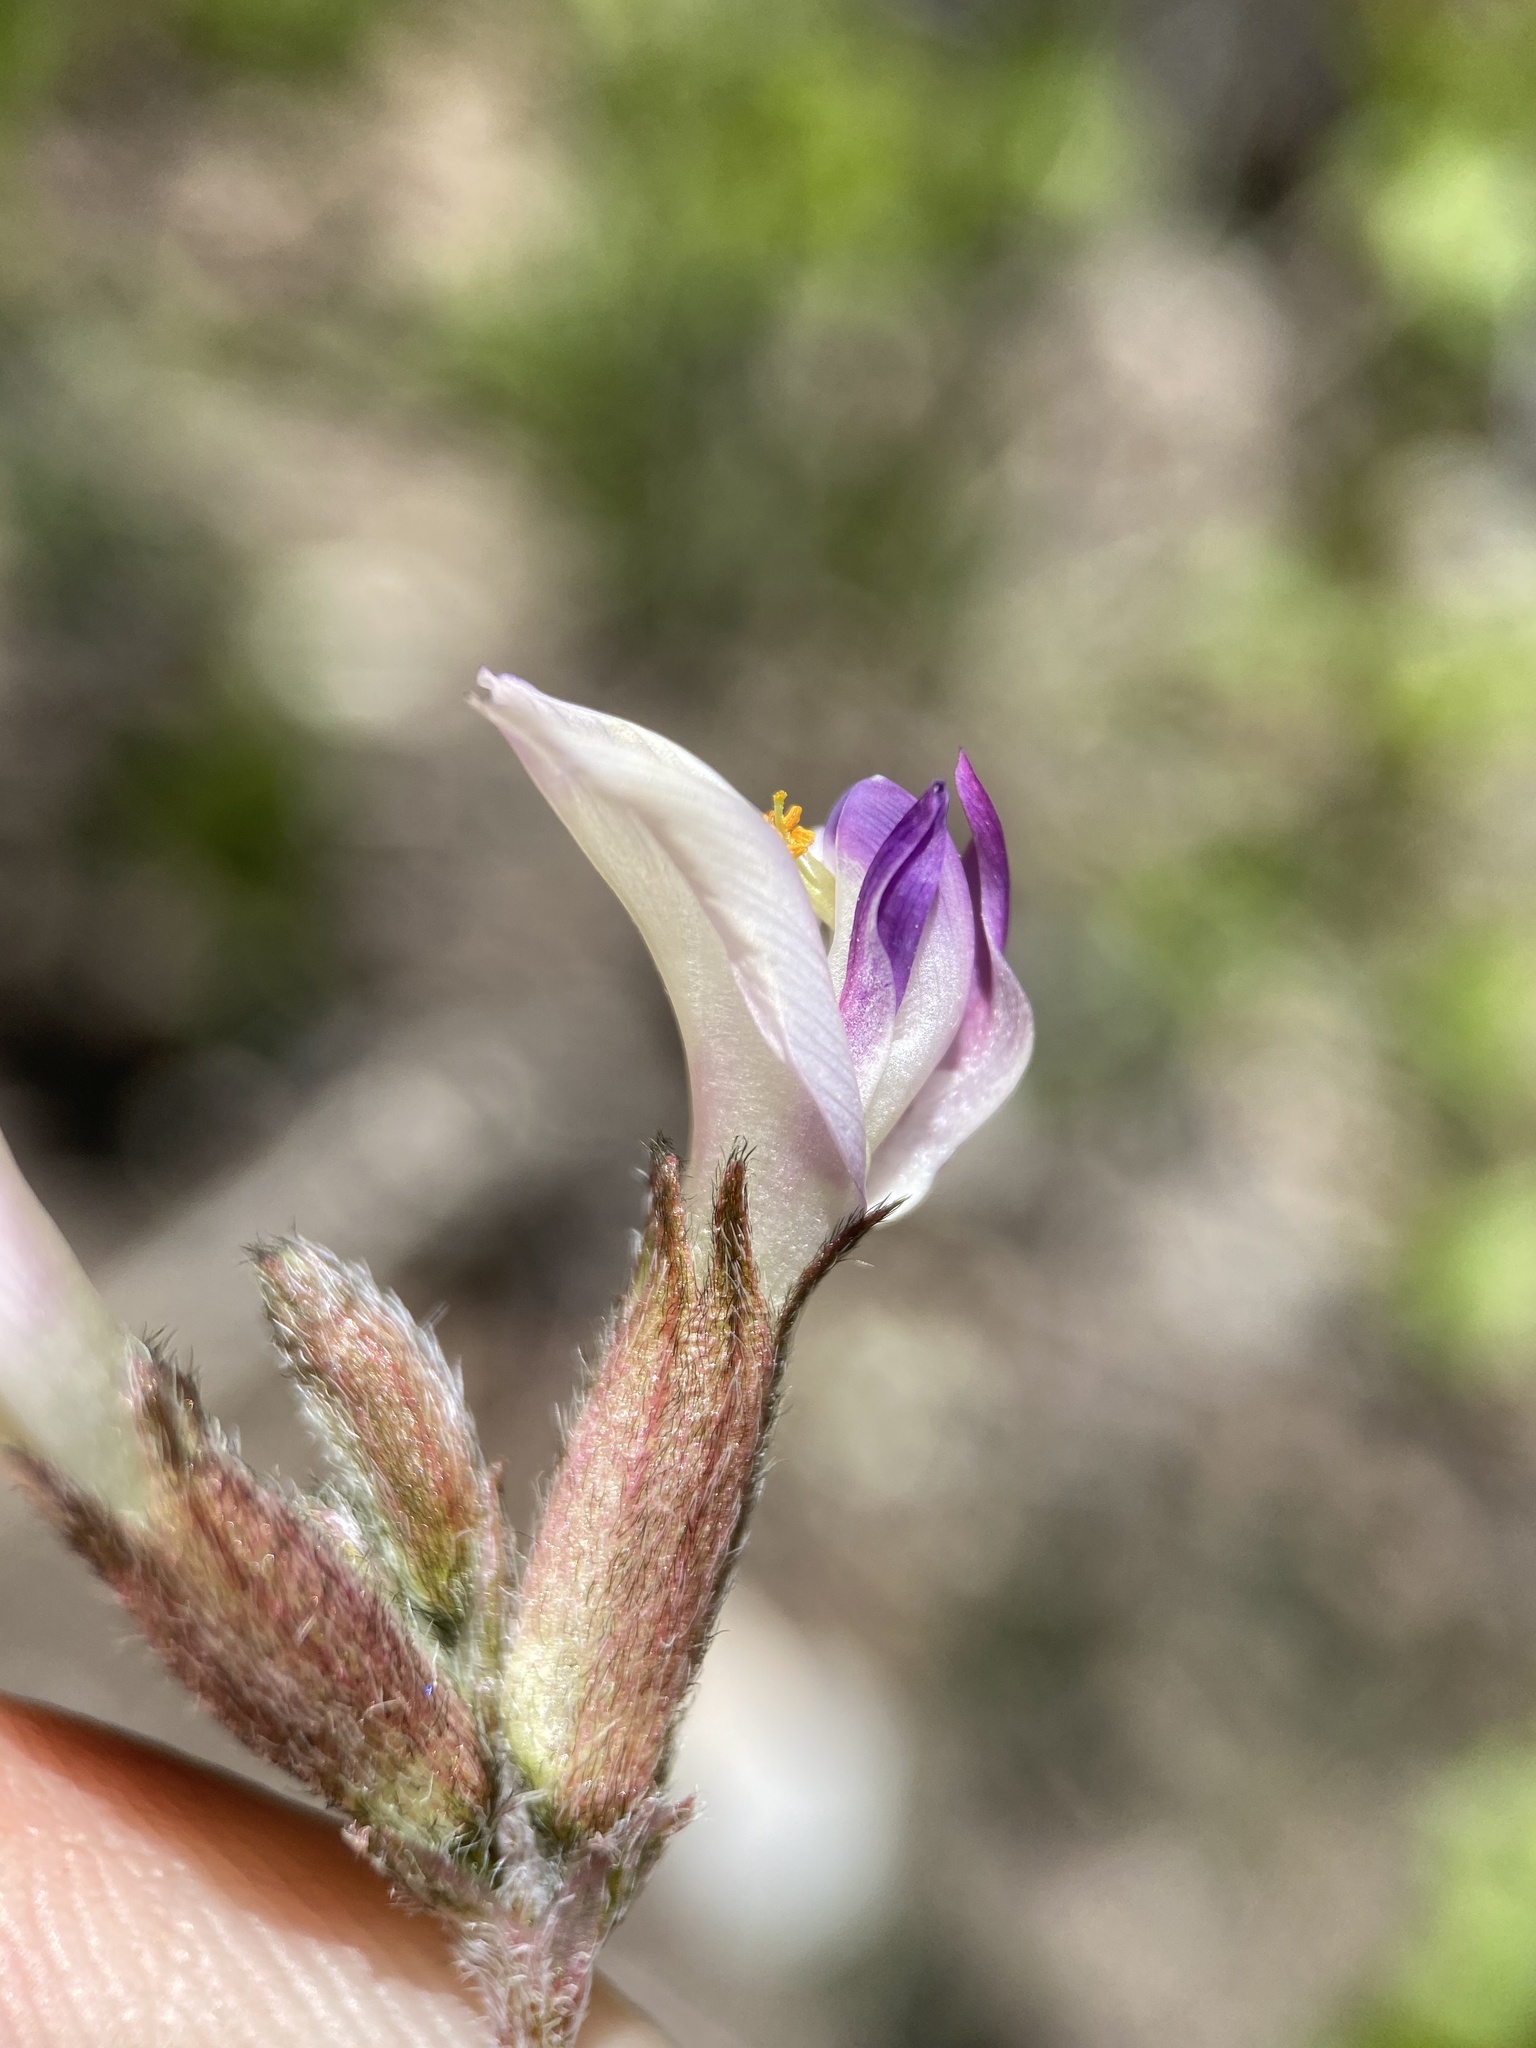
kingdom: Plantae
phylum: Tracheophyta
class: Magnoliopsida
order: Fabales
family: Fabaceae
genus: Astragalus
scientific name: Astragalus piutensis
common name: Sevier milkvetch
